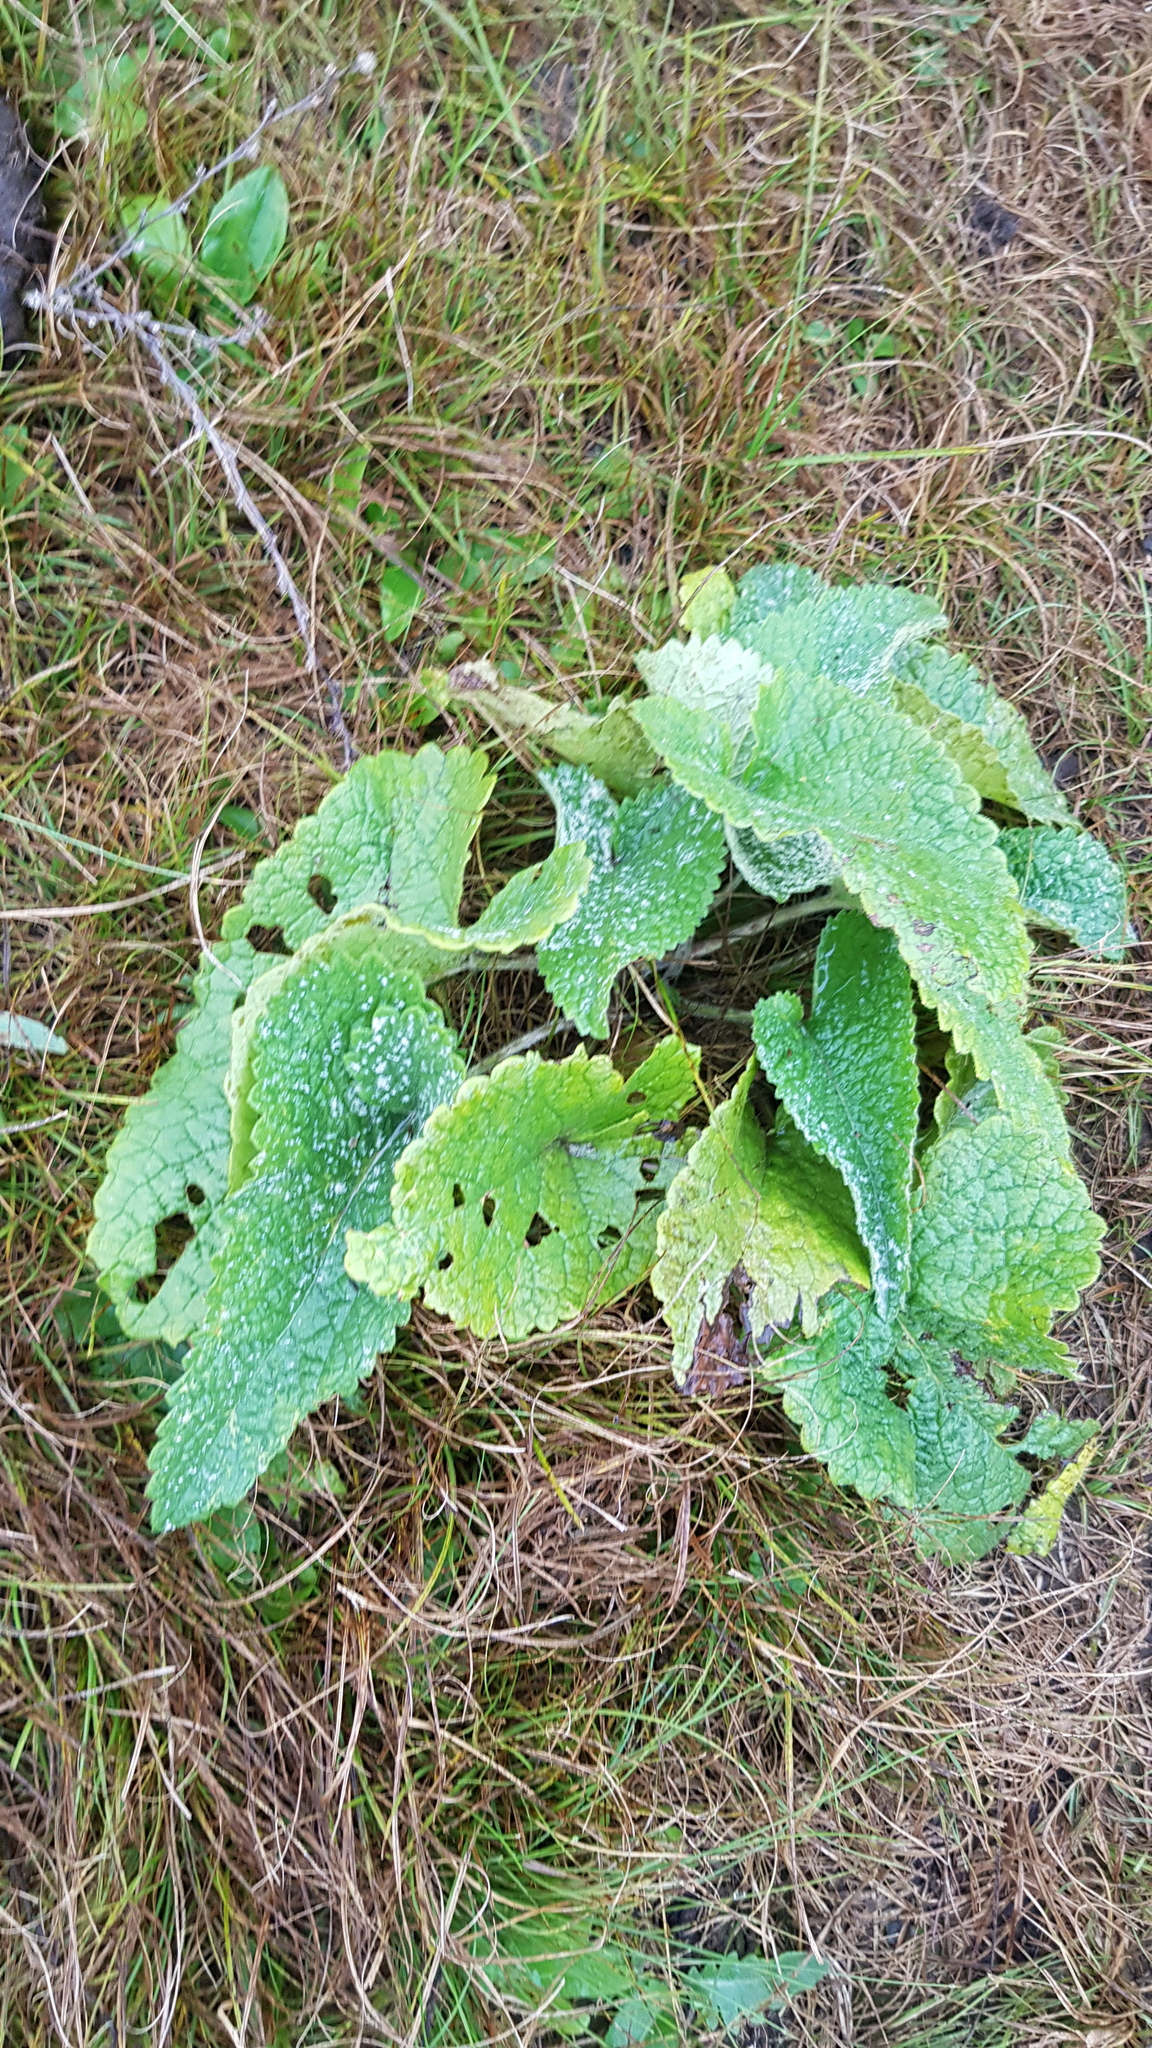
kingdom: Plantae
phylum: Tracheophyta
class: Magnoliopsida
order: Lamiales
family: Lamiaceae
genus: Phlomoides
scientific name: Phlomoides tuberosa
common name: Tuberous jerusalem sage
